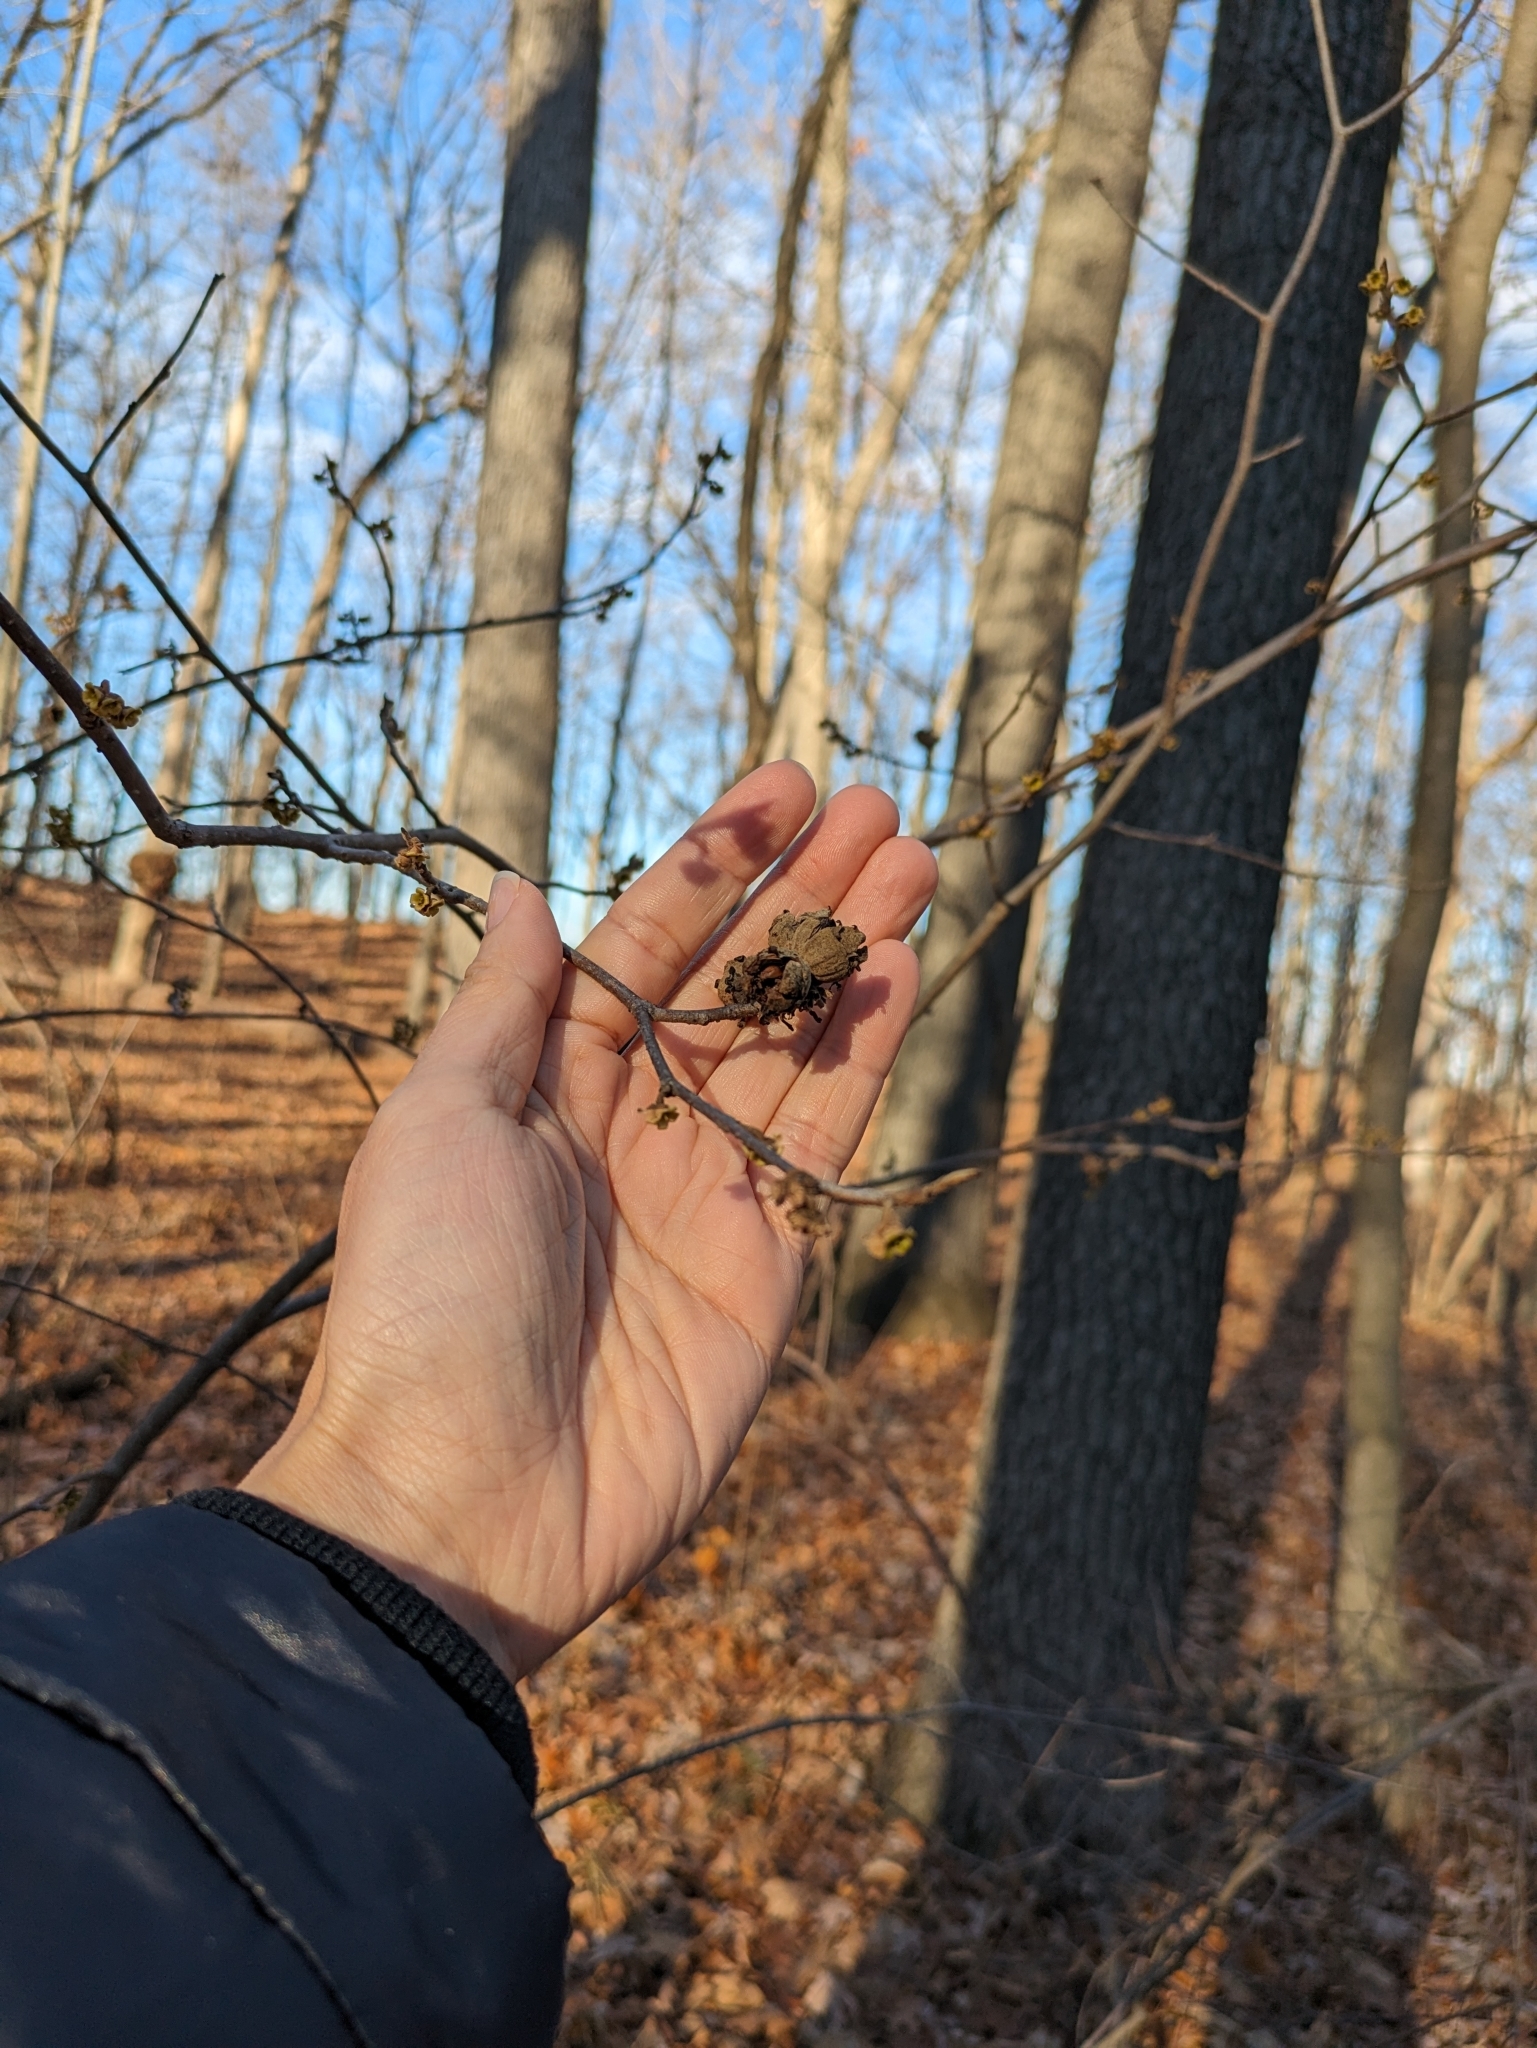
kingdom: Plantae
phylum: Tracheophyta
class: Magnoliopsida
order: Saxifragales
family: Hamamelidaceae
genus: Hamamelis
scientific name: Hamamelis virginiana
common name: Witch-hazel
